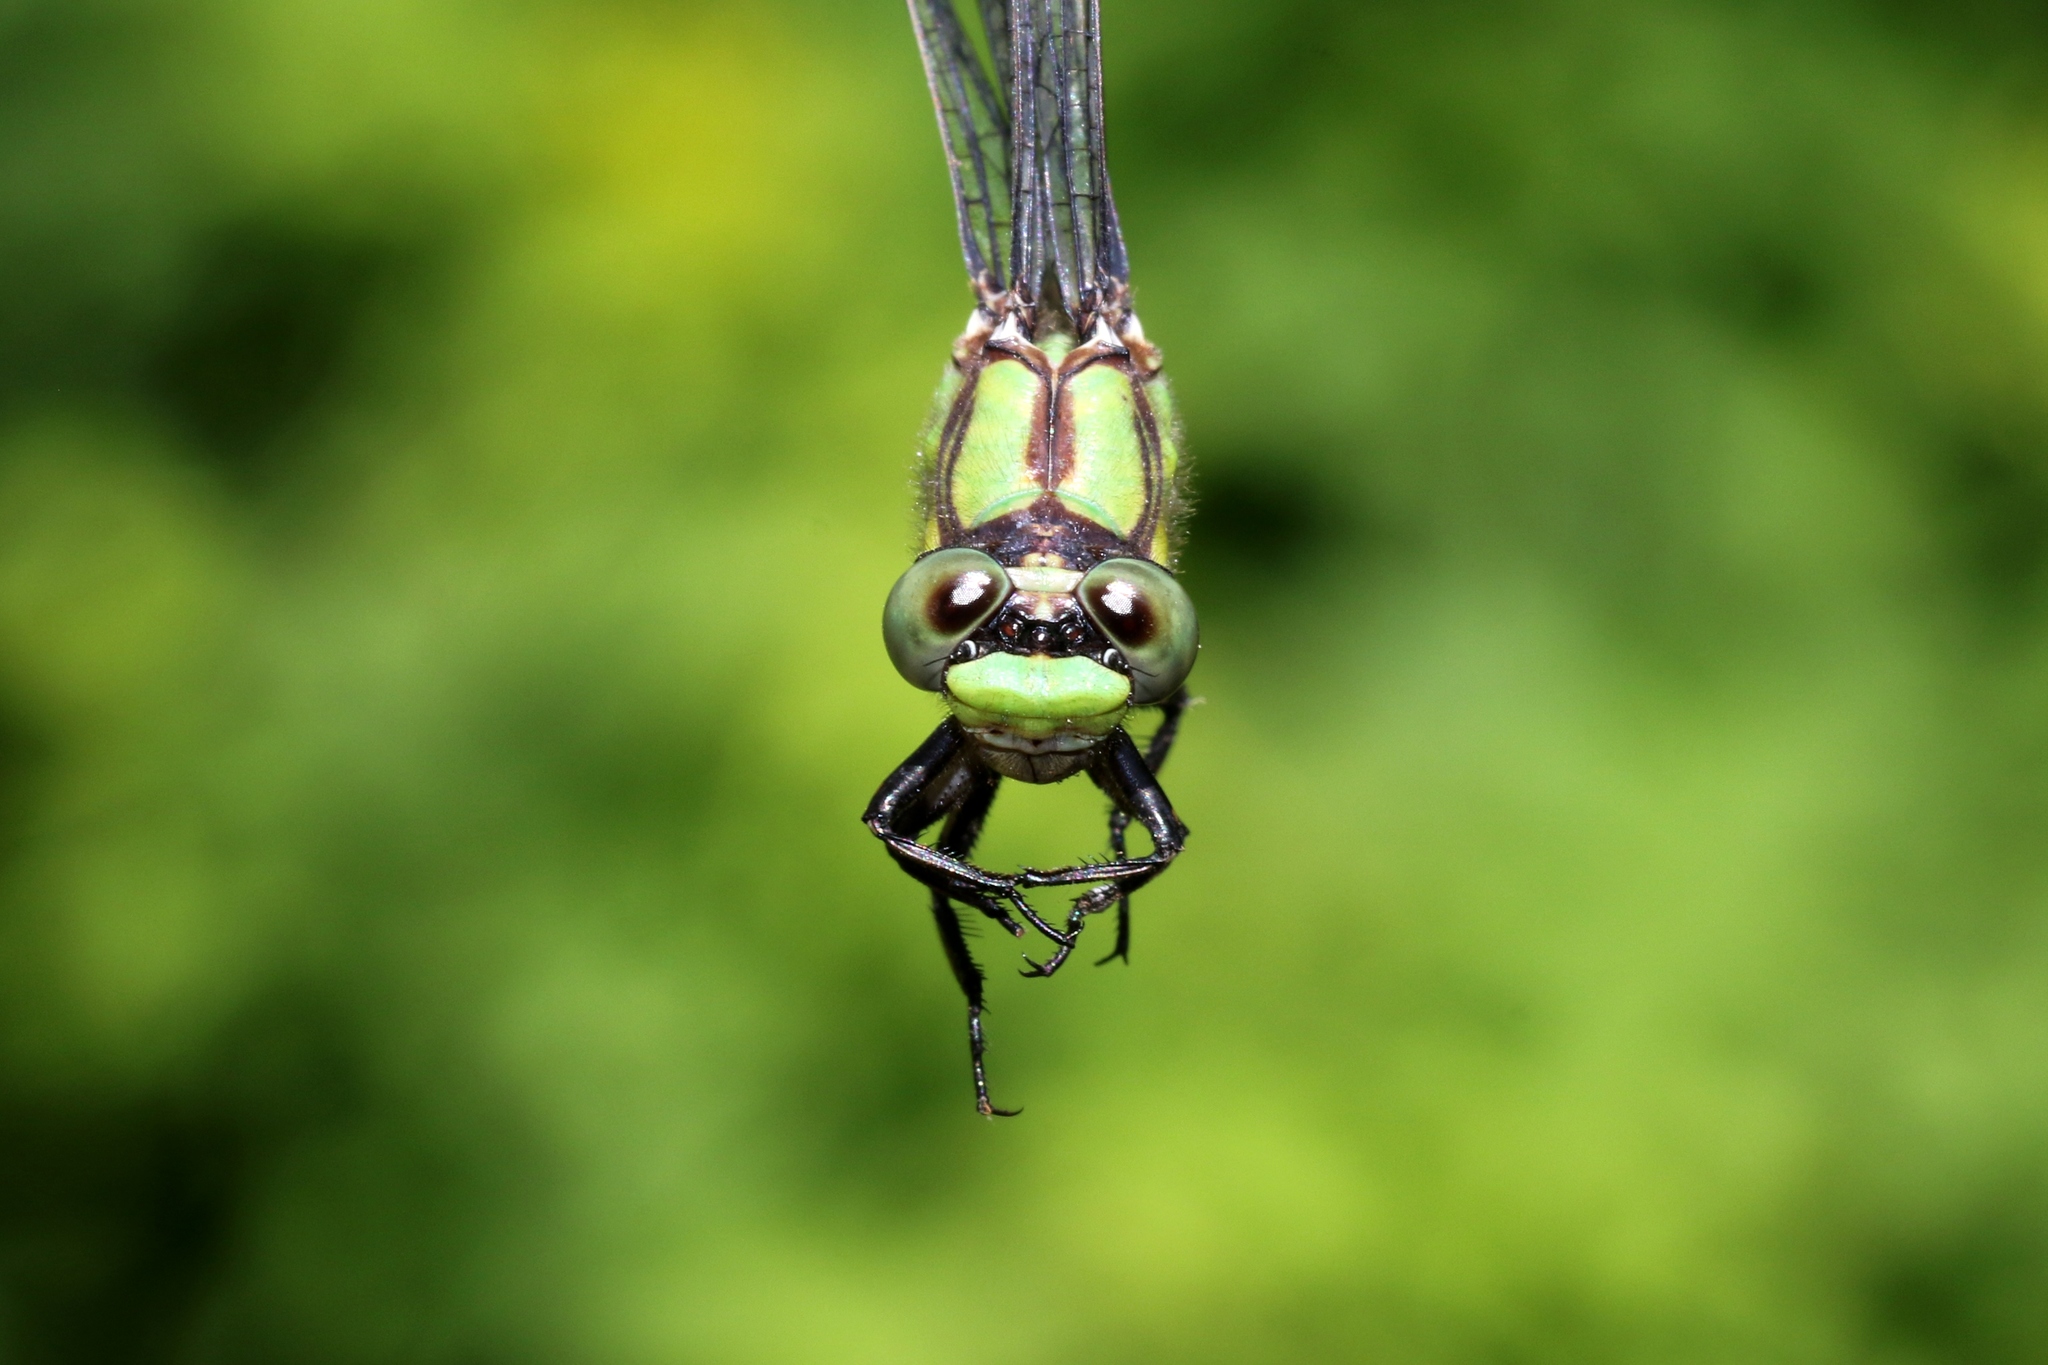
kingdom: Animalia
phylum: Arthropoda
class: Insecta
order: Odonata
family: Gomphidae
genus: Ophiogomphus
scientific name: Ophiogomphus aspersus
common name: Brook snaketail
